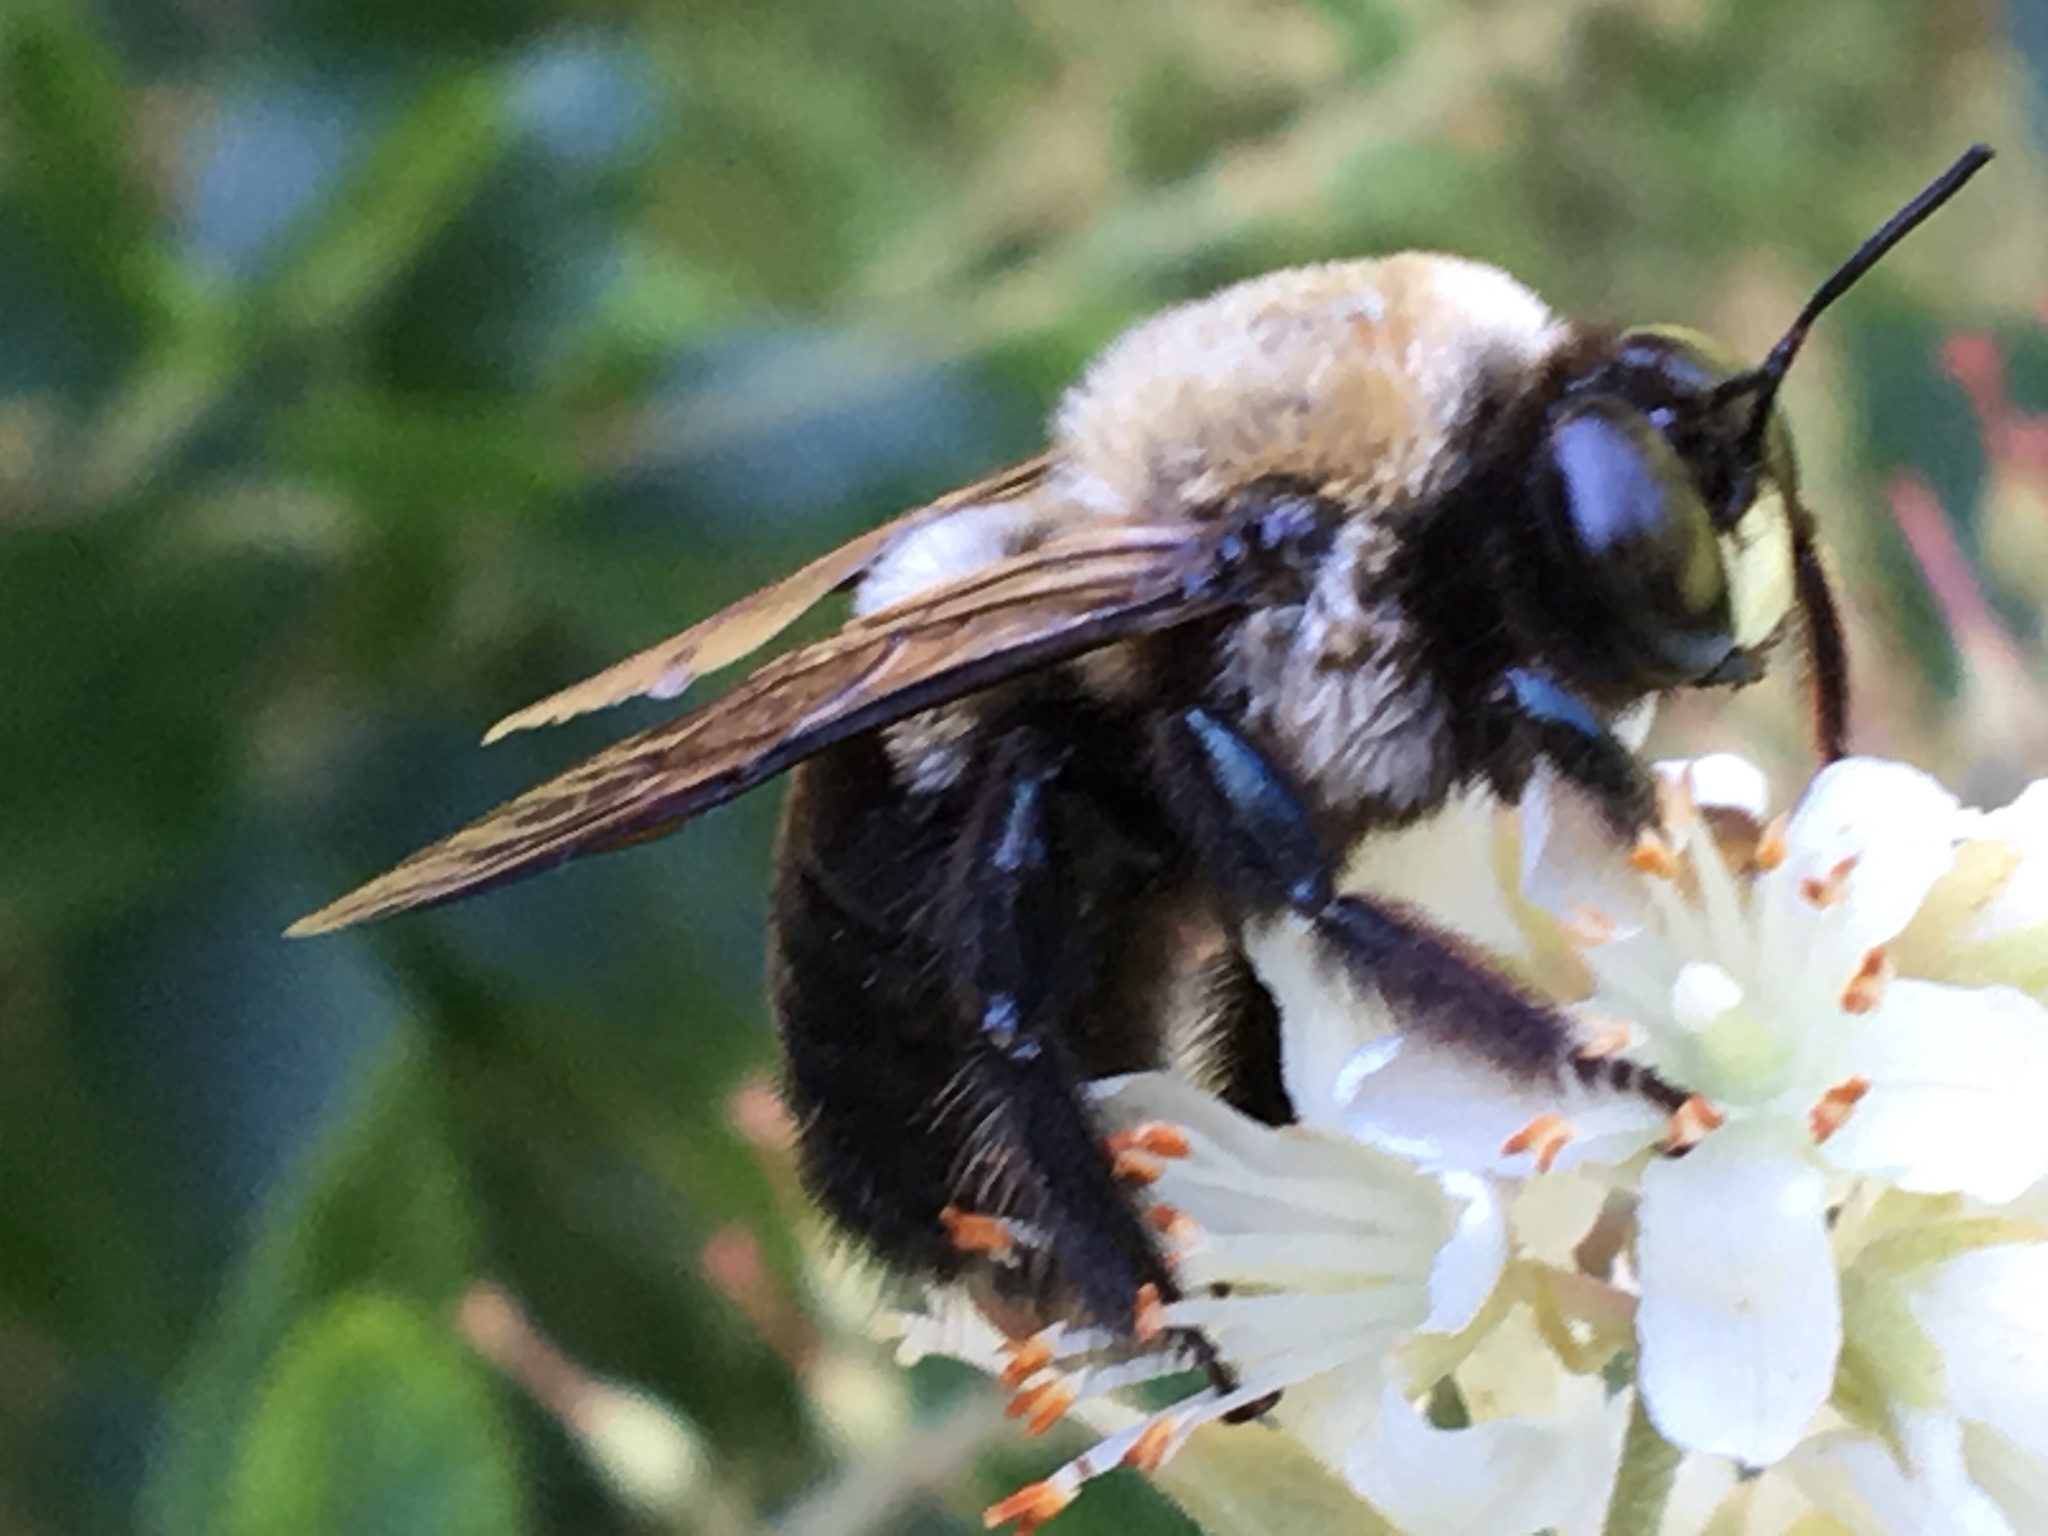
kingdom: Animalia
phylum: Arthropoda
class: Insecta
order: Hymenoptera
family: Apidae
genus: Xylocopa
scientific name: Xylocopa virginica
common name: Carpenter bee
